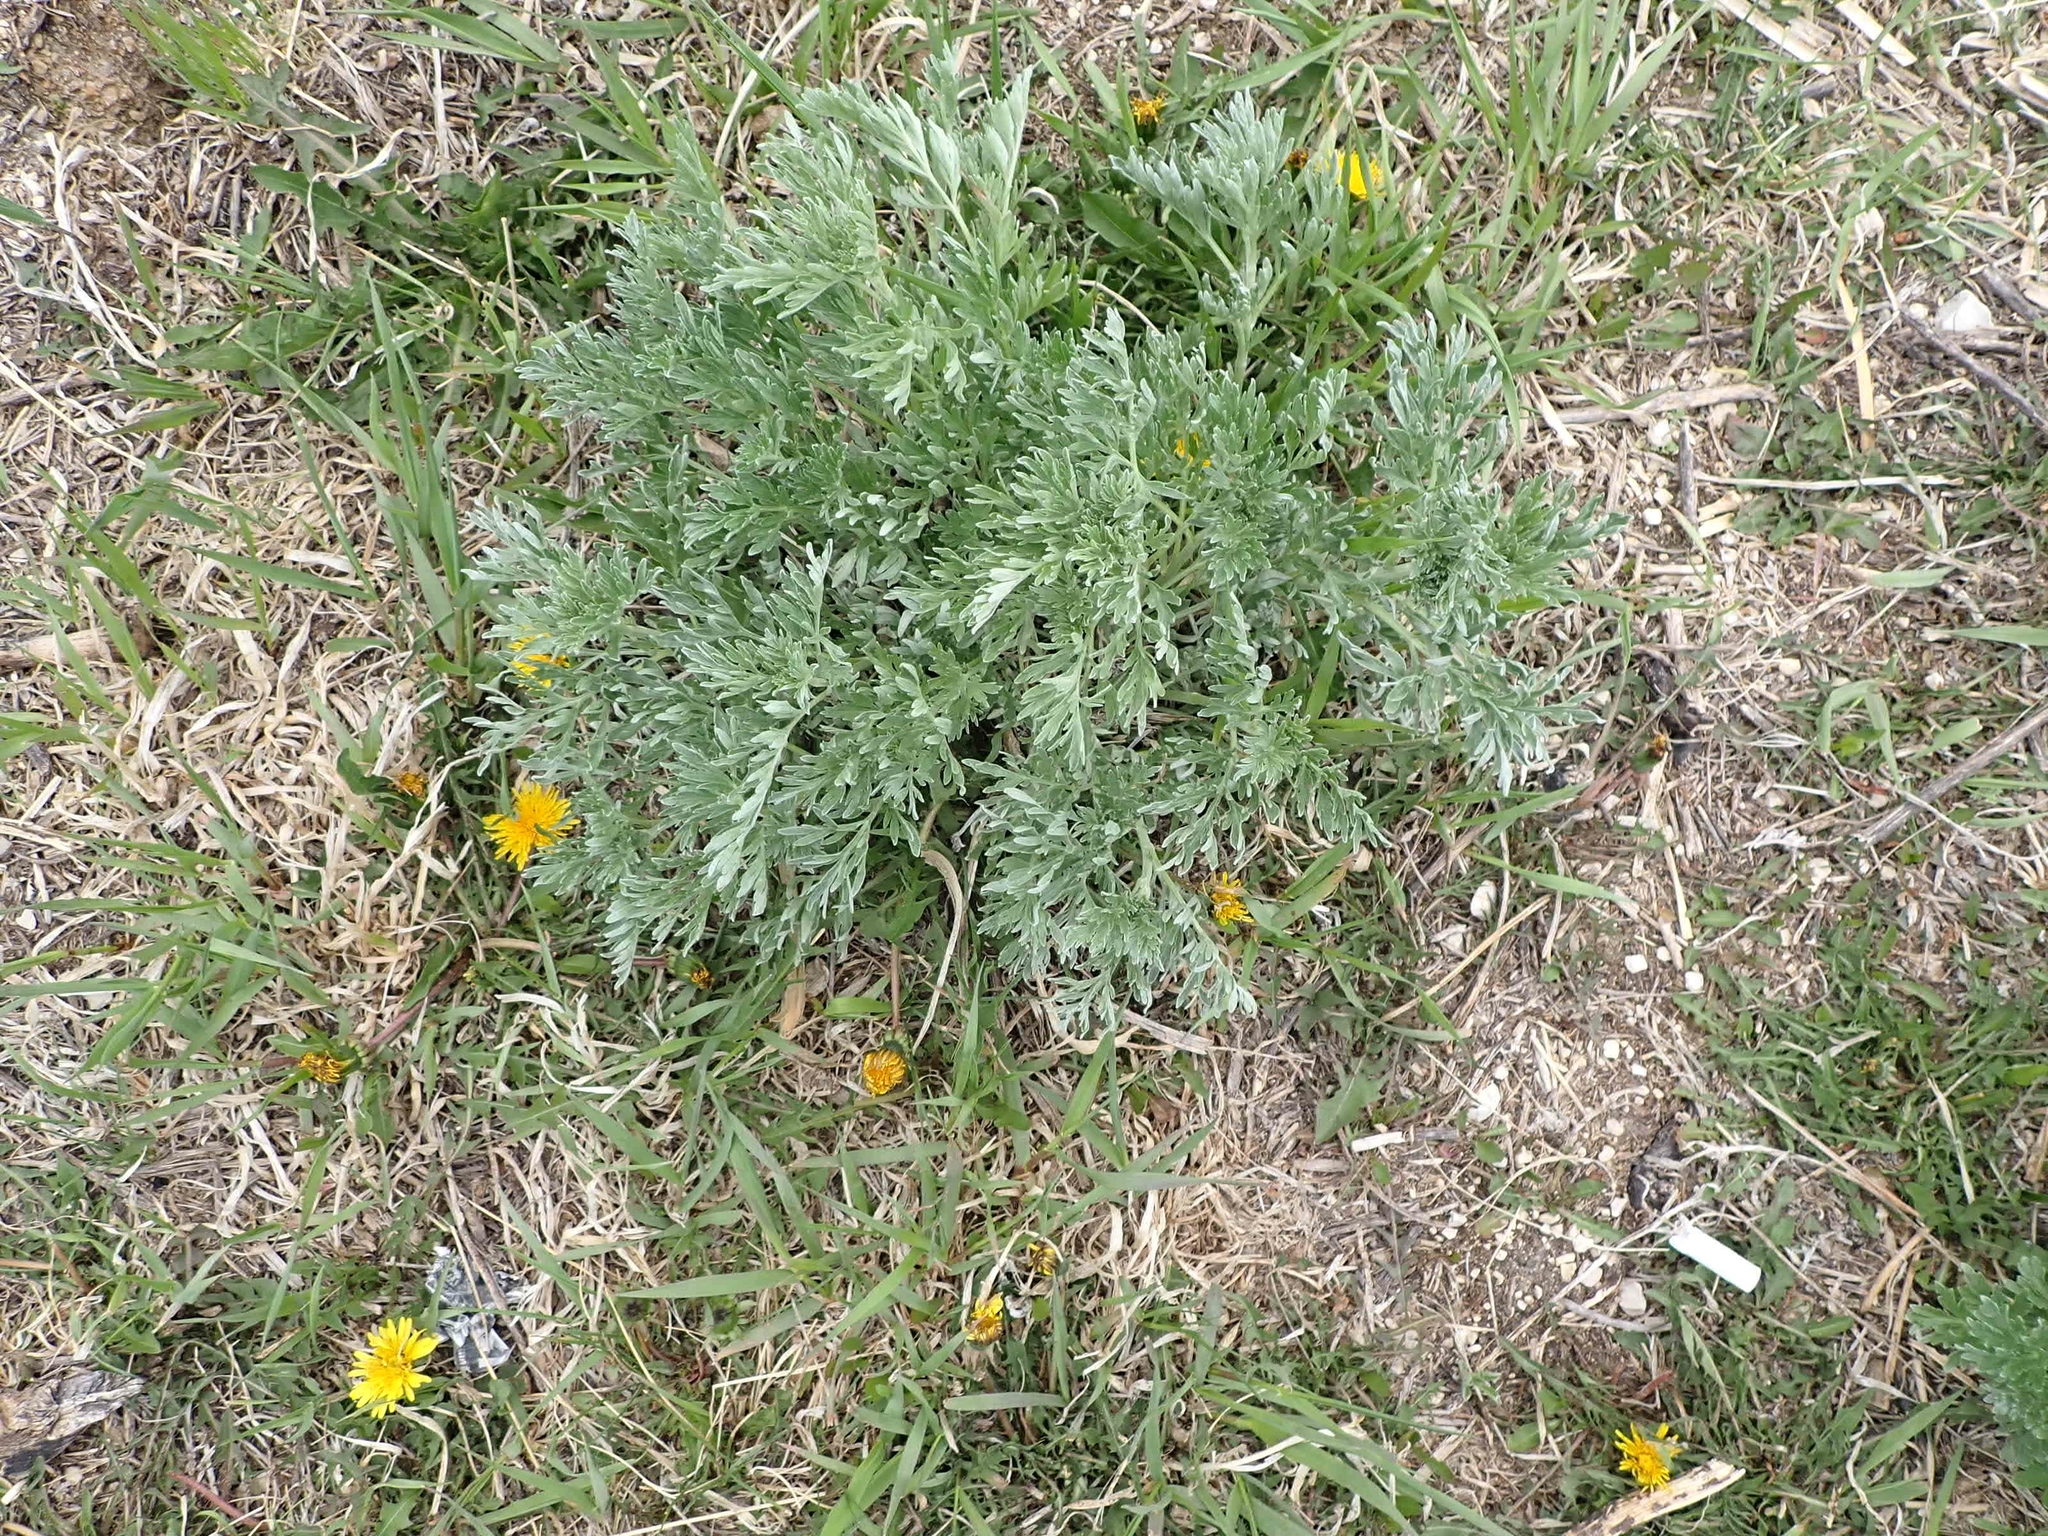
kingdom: Plantae
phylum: Tracheophyta
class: Magnoliopsida
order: Asterales
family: Asteraceae
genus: Artemisia
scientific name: Artemisia absinthium
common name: Wormwood
